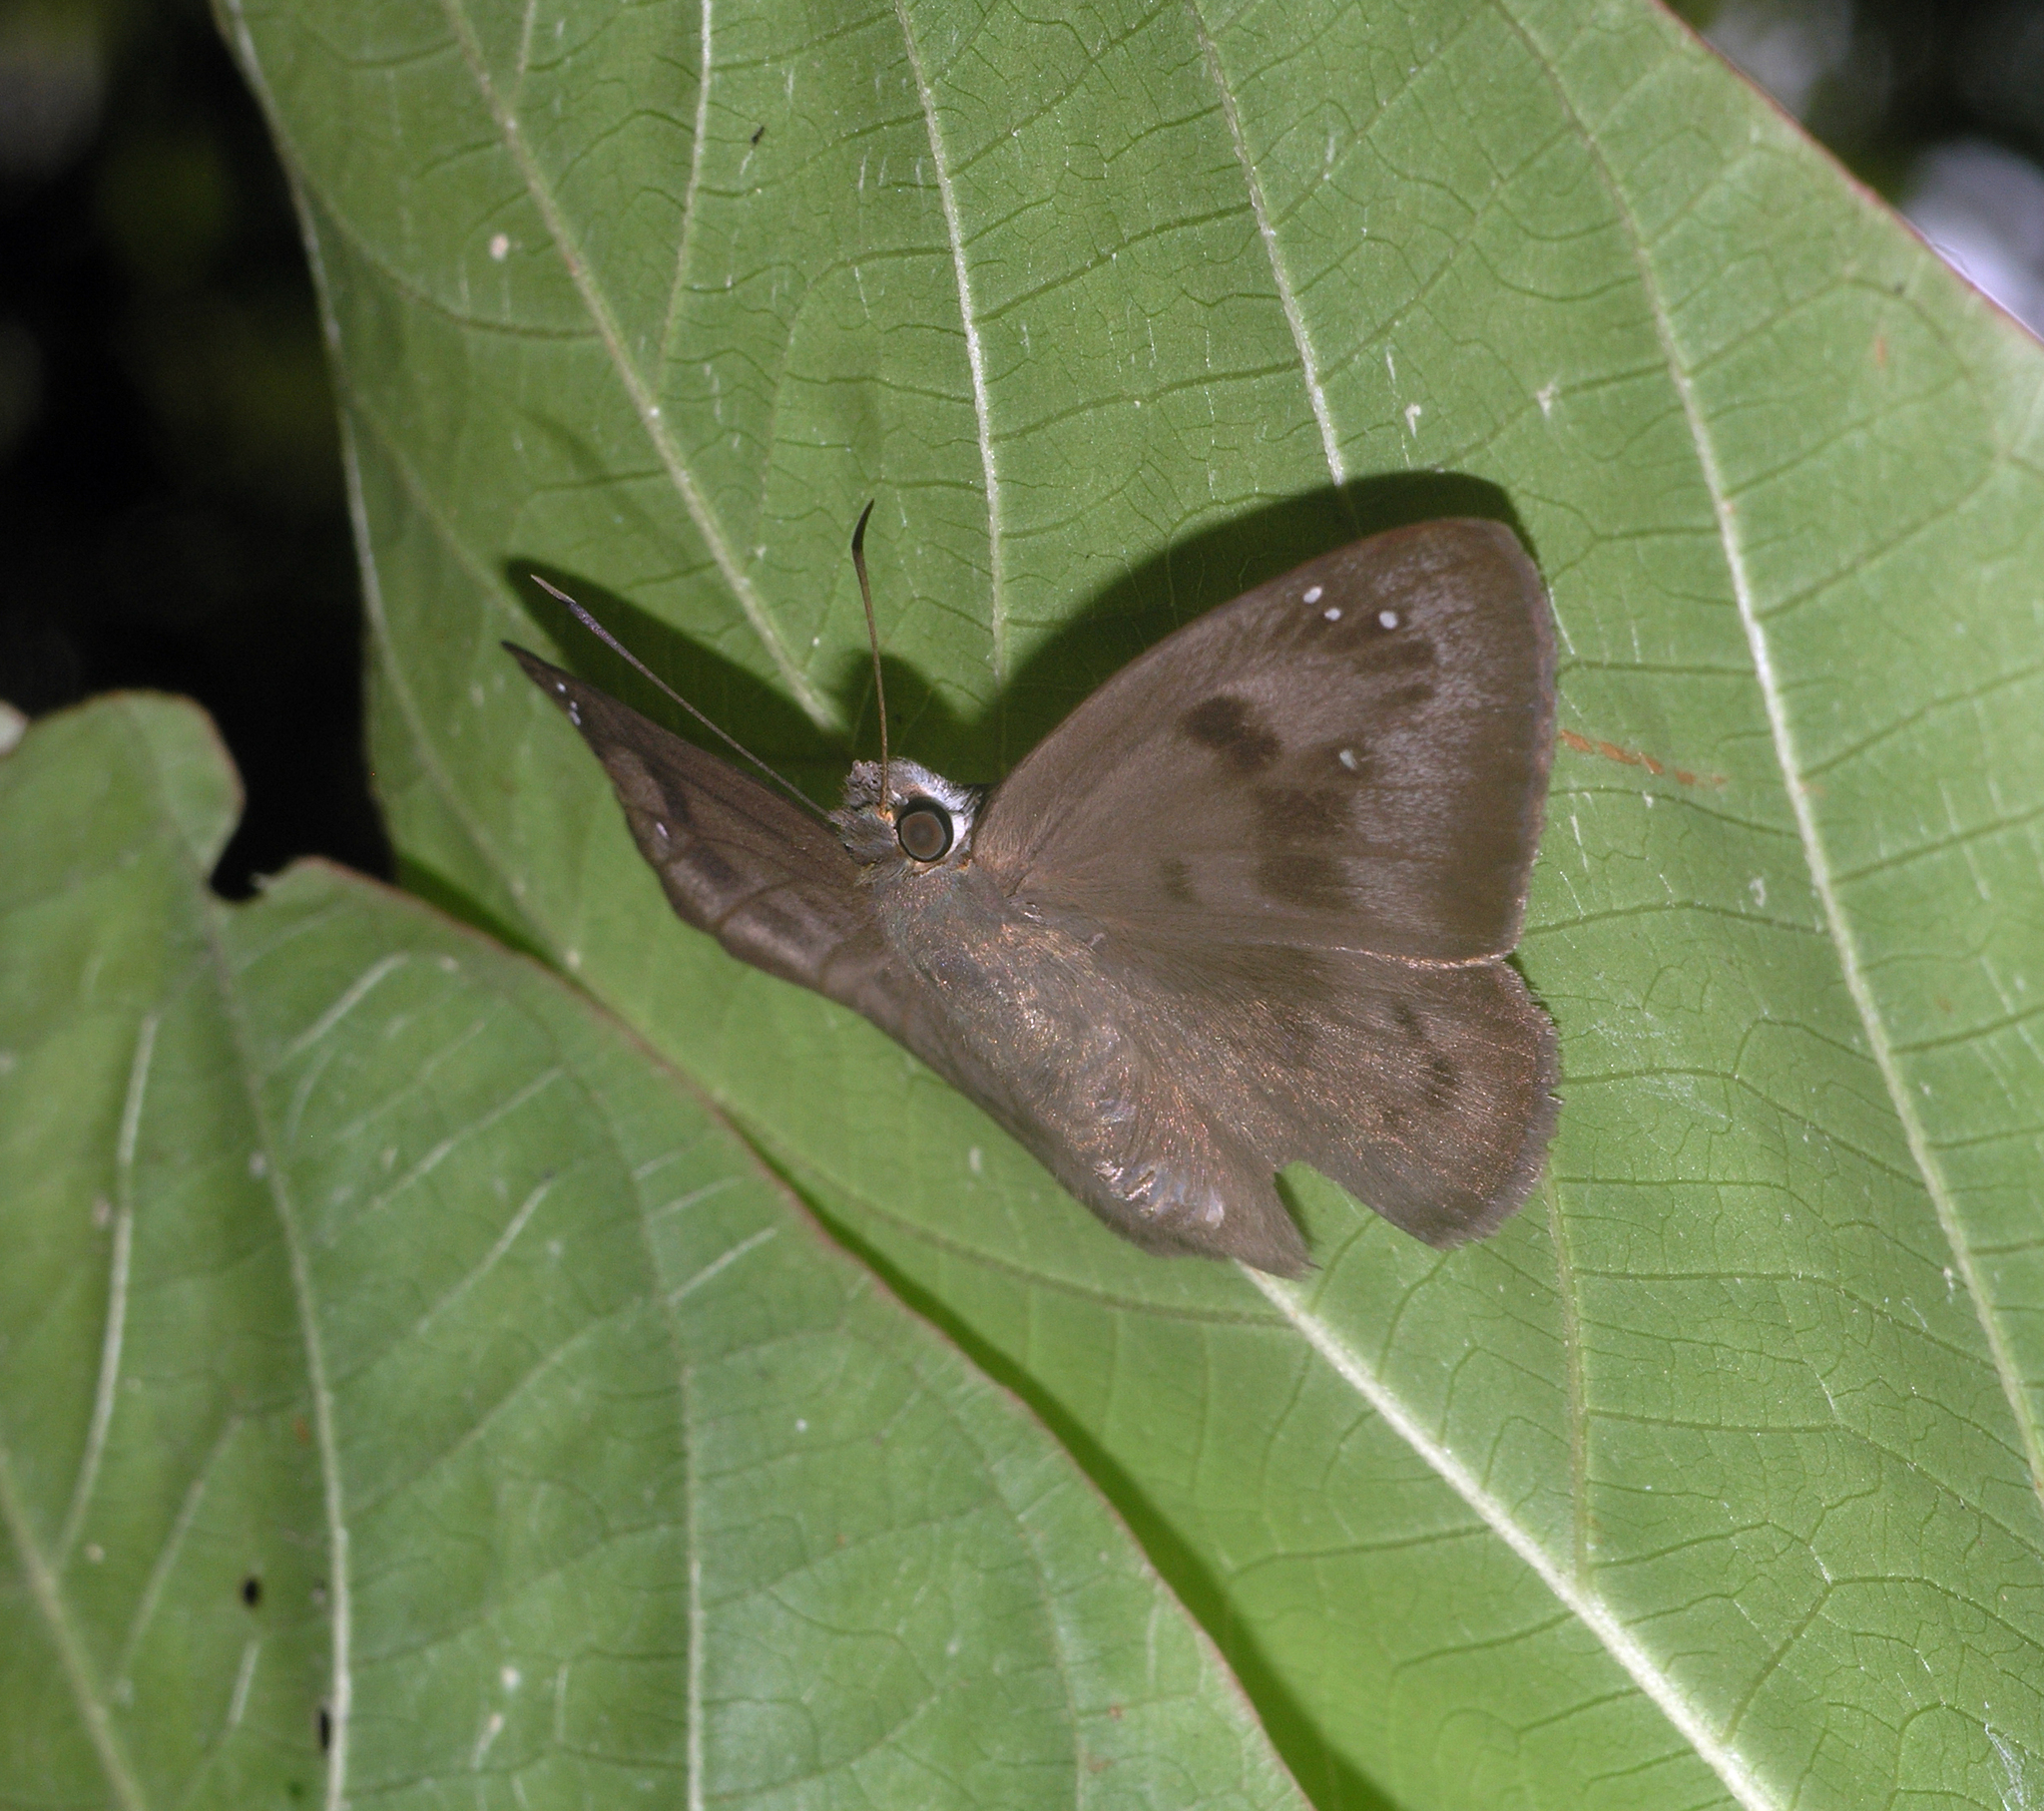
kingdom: Animalia
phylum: Arthropoda
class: Insecta
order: Lepidoptera
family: Hesperiidae
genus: Tagiades
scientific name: Tagiades japetus
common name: Pied flat
